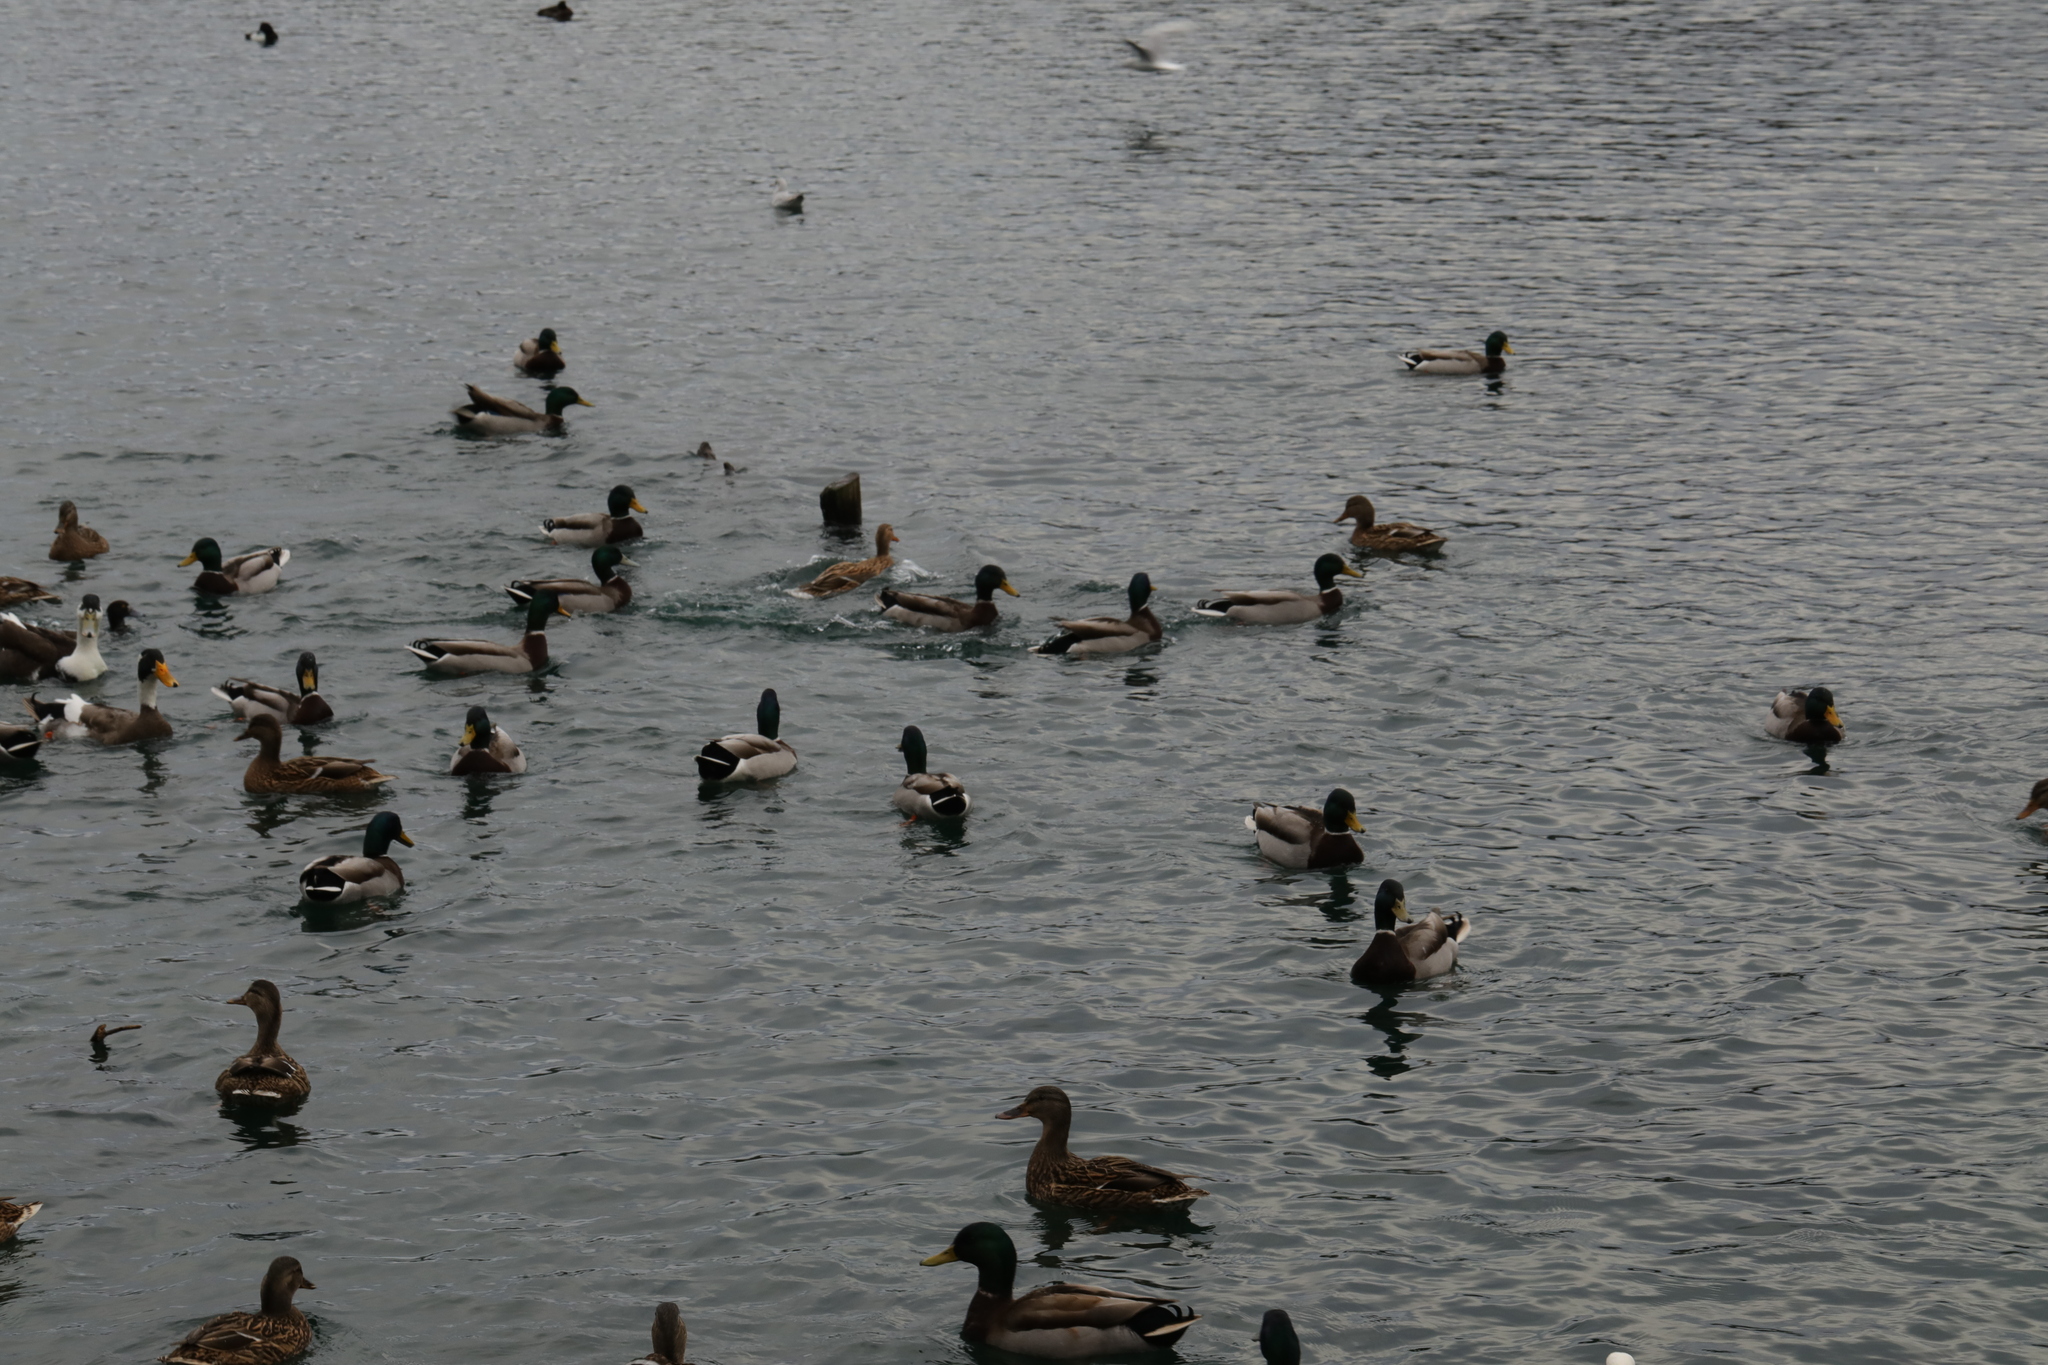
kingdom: Animalia
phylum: Chordata
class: Aves
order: Anseriformes
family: Anatidae
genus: Anas
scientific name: Anas platyrhynchos
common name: Mallard
